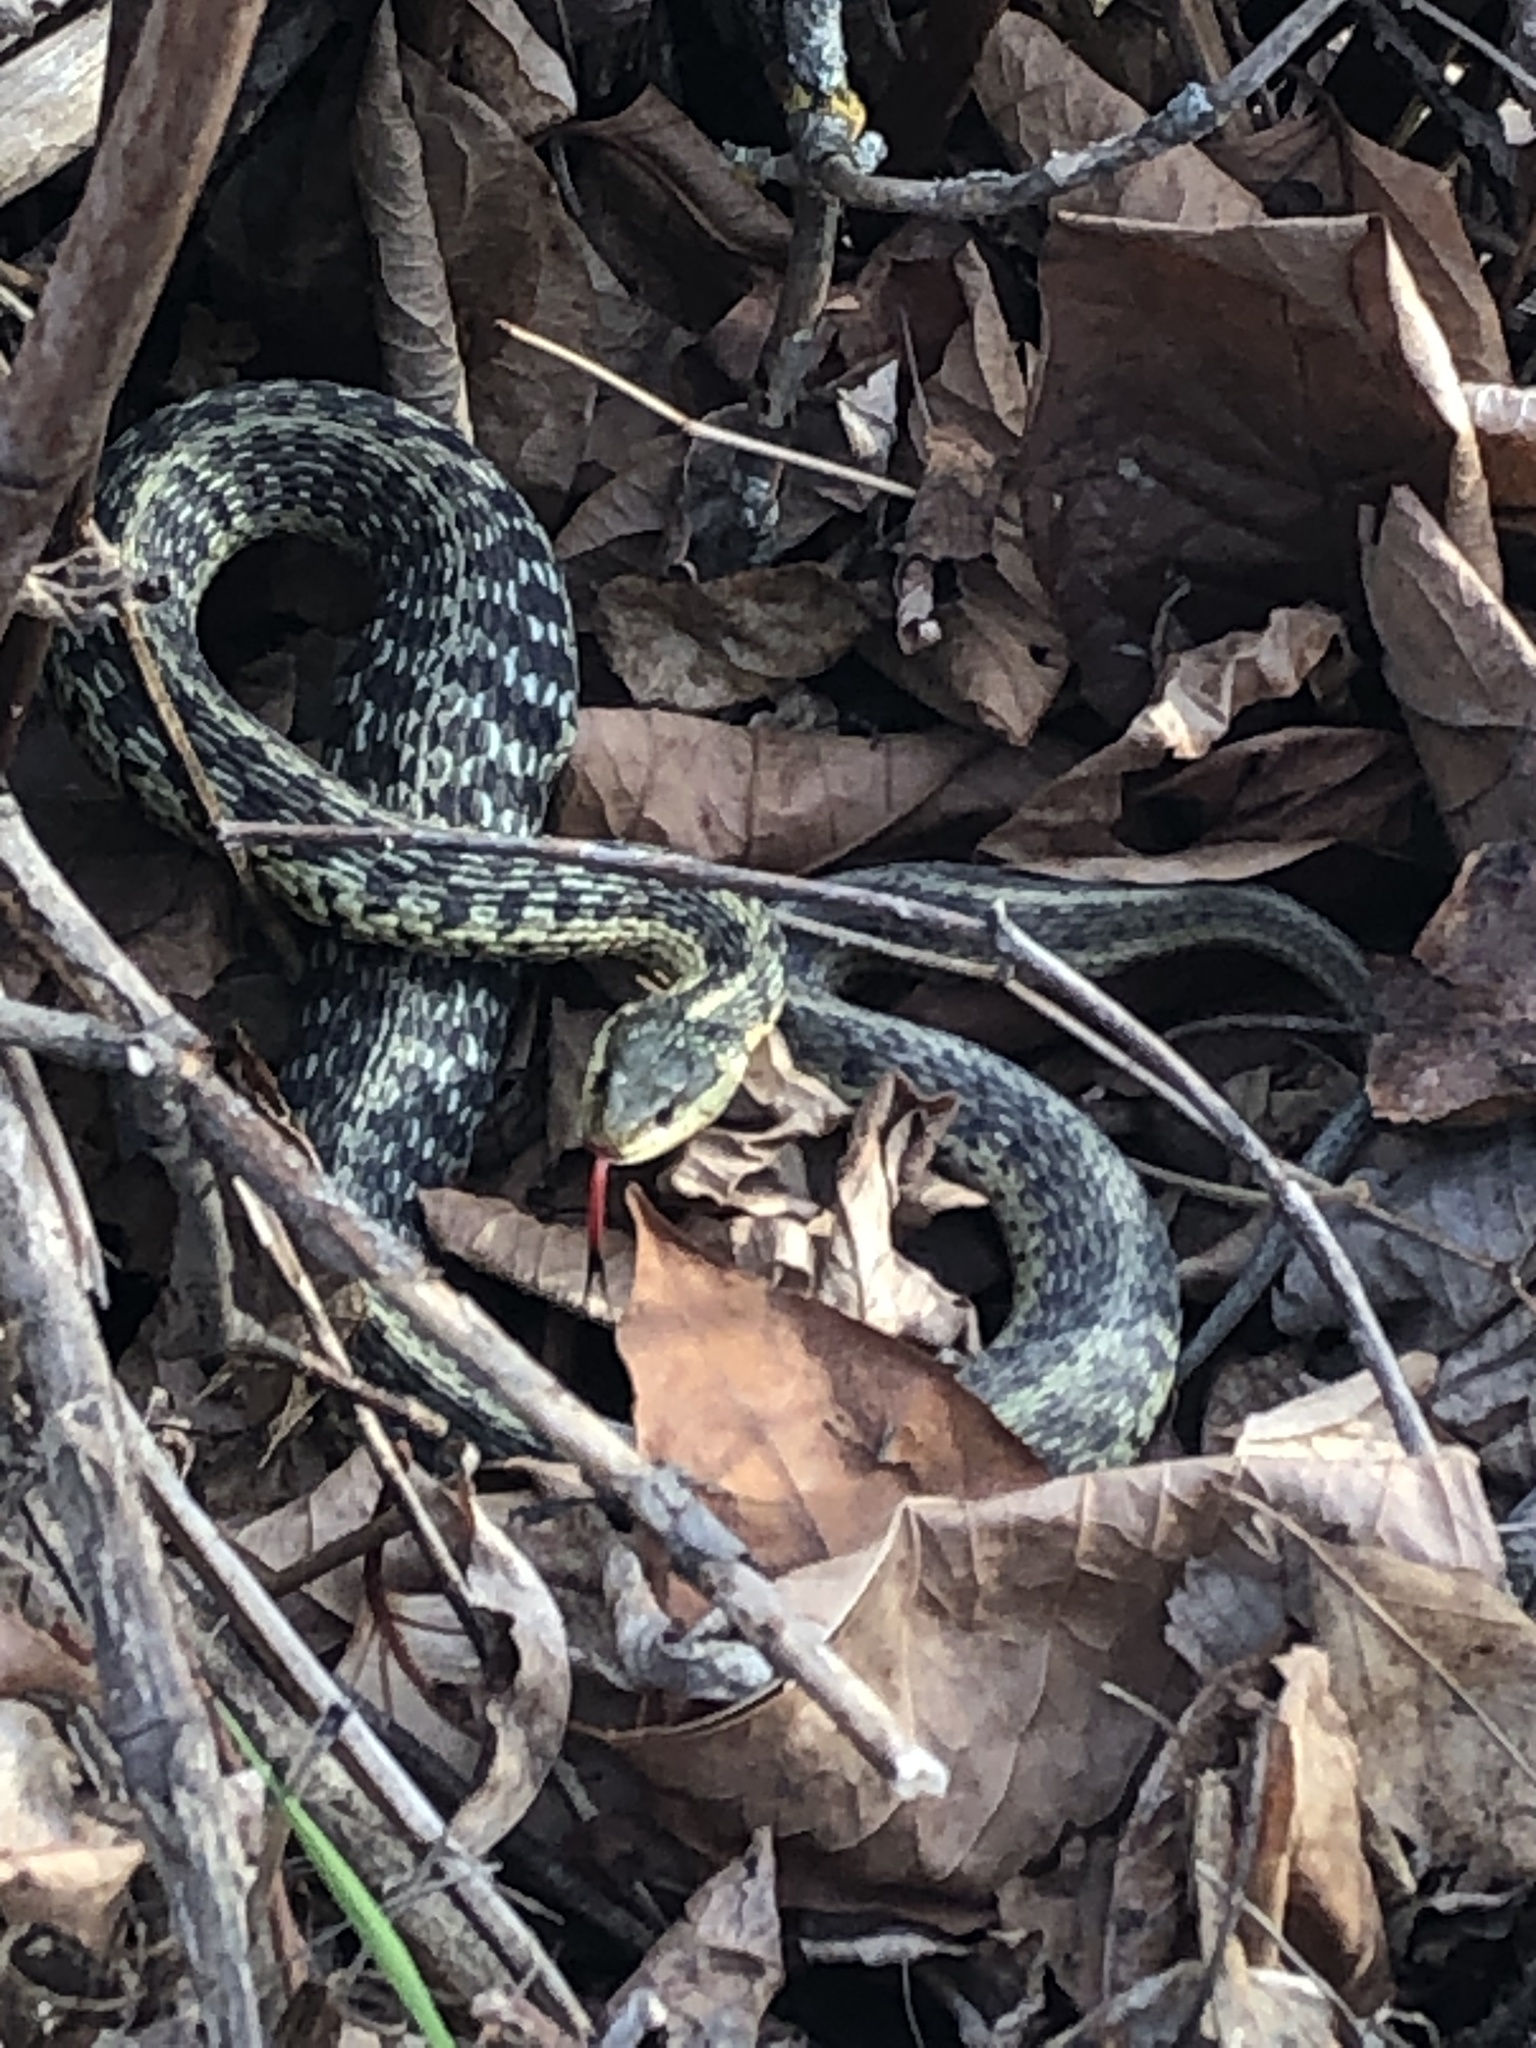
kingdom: Animalia
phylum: Chordata
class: Squamata
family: Colubridae
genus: Thamnophis
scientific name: Thamnophis sirtalis
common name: Common garter snake
